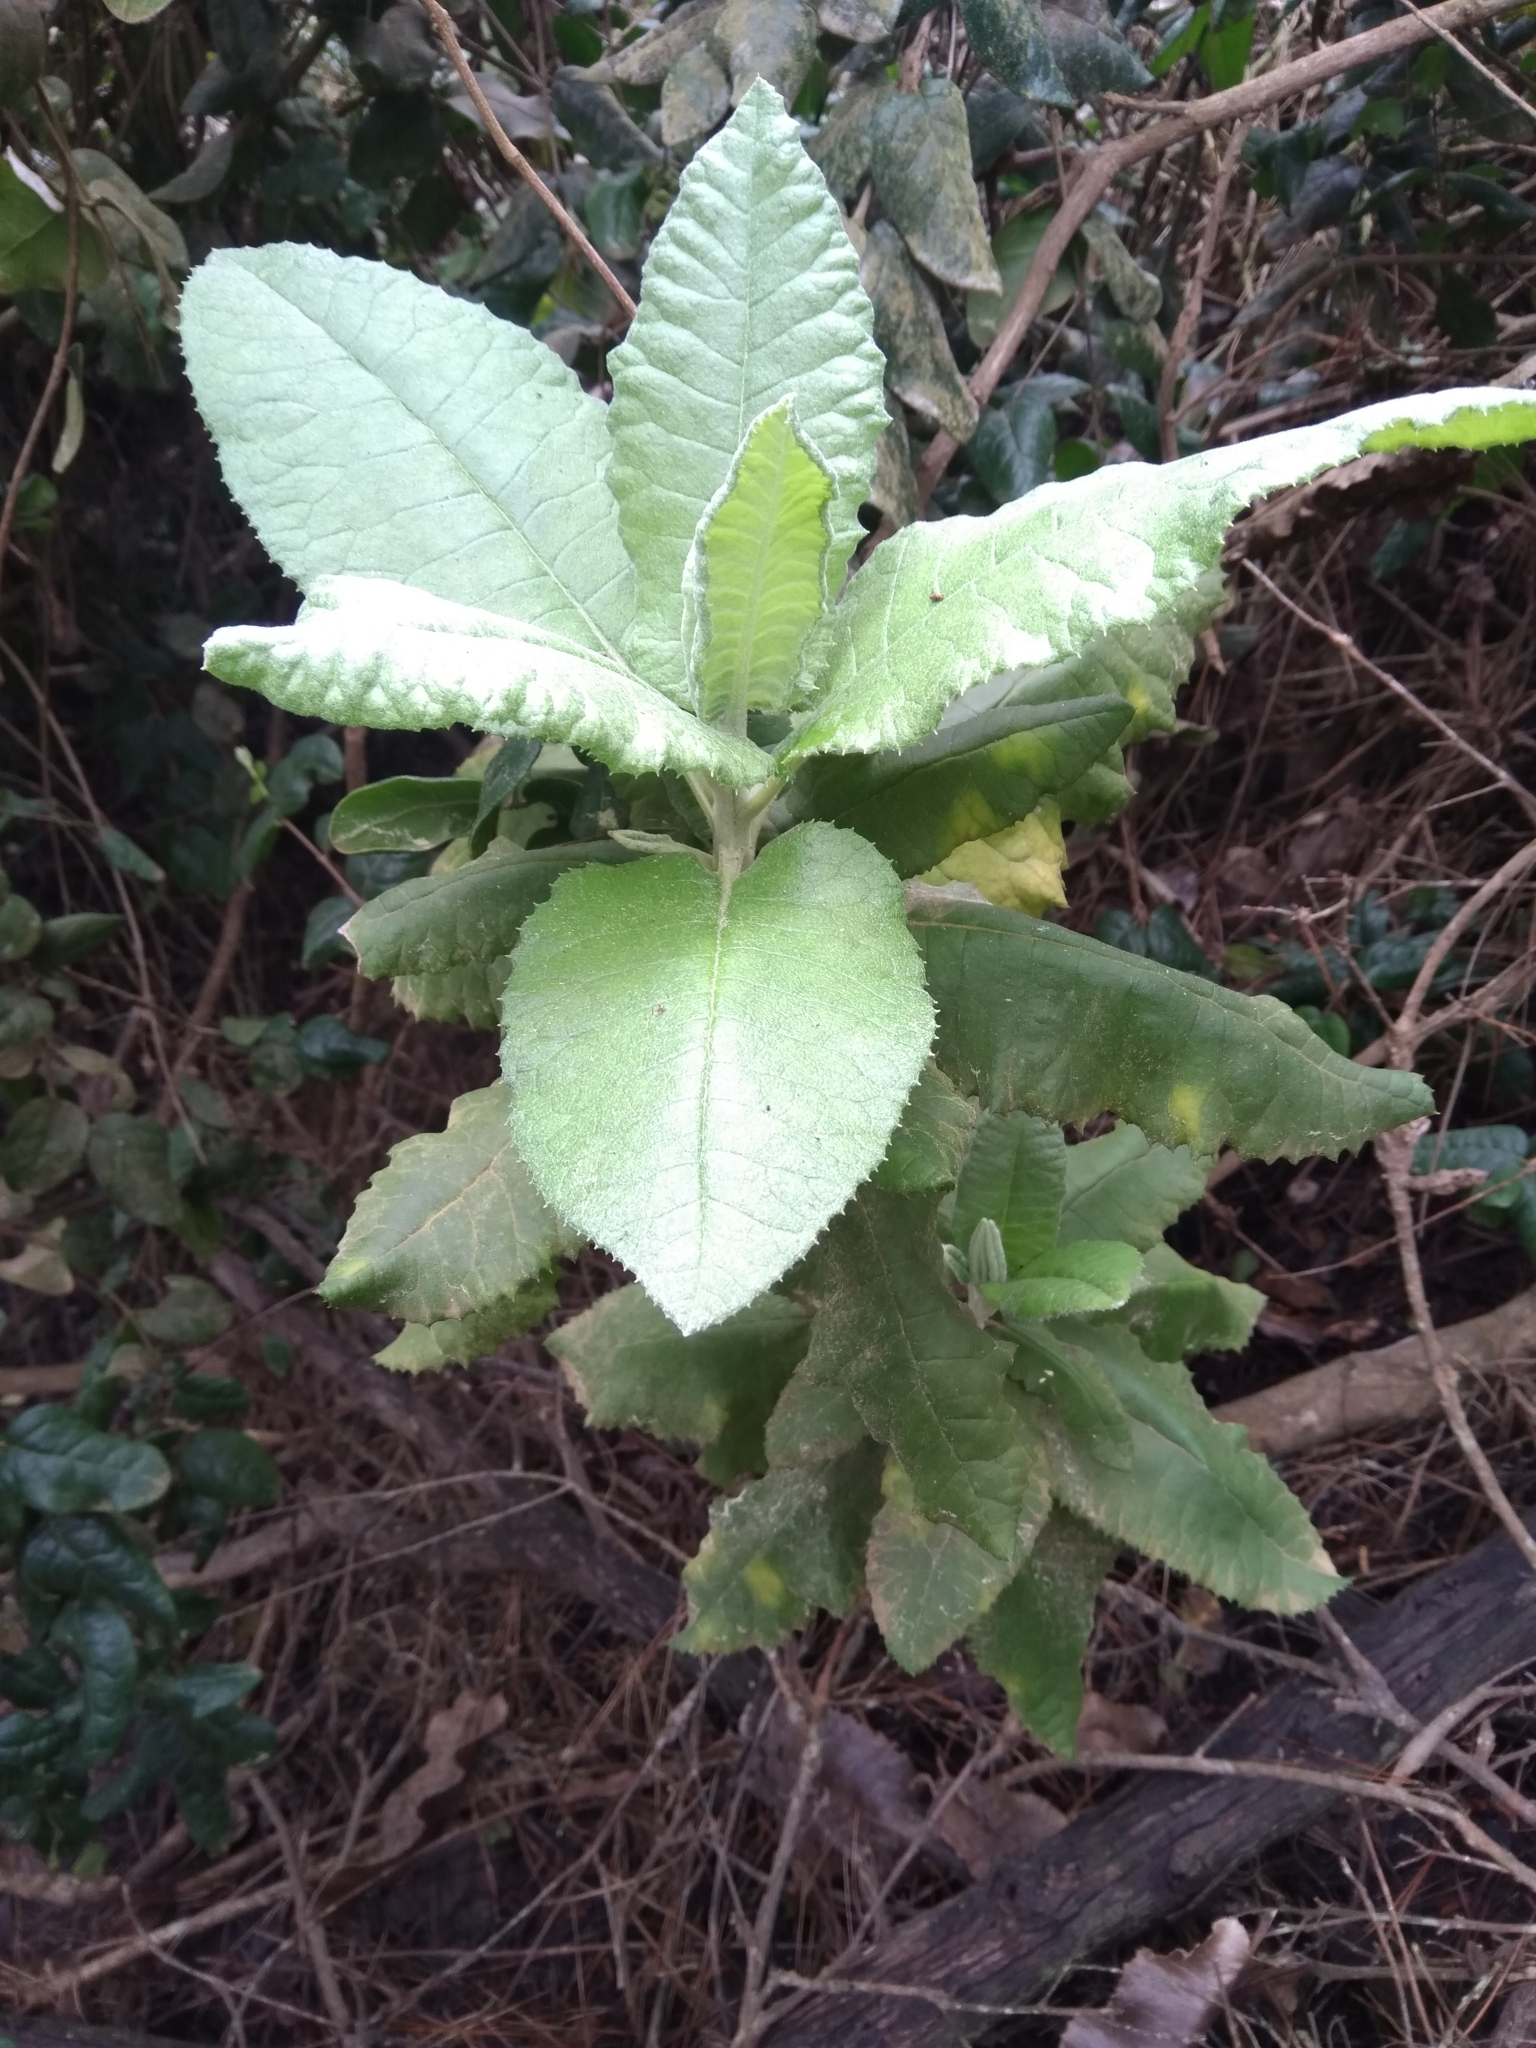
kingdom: Plantae
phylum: Tracheophyta
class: Magnoliopsida
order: Asterales
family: Asteraceae
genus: Acrisione
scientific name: Acrisione denticulata
